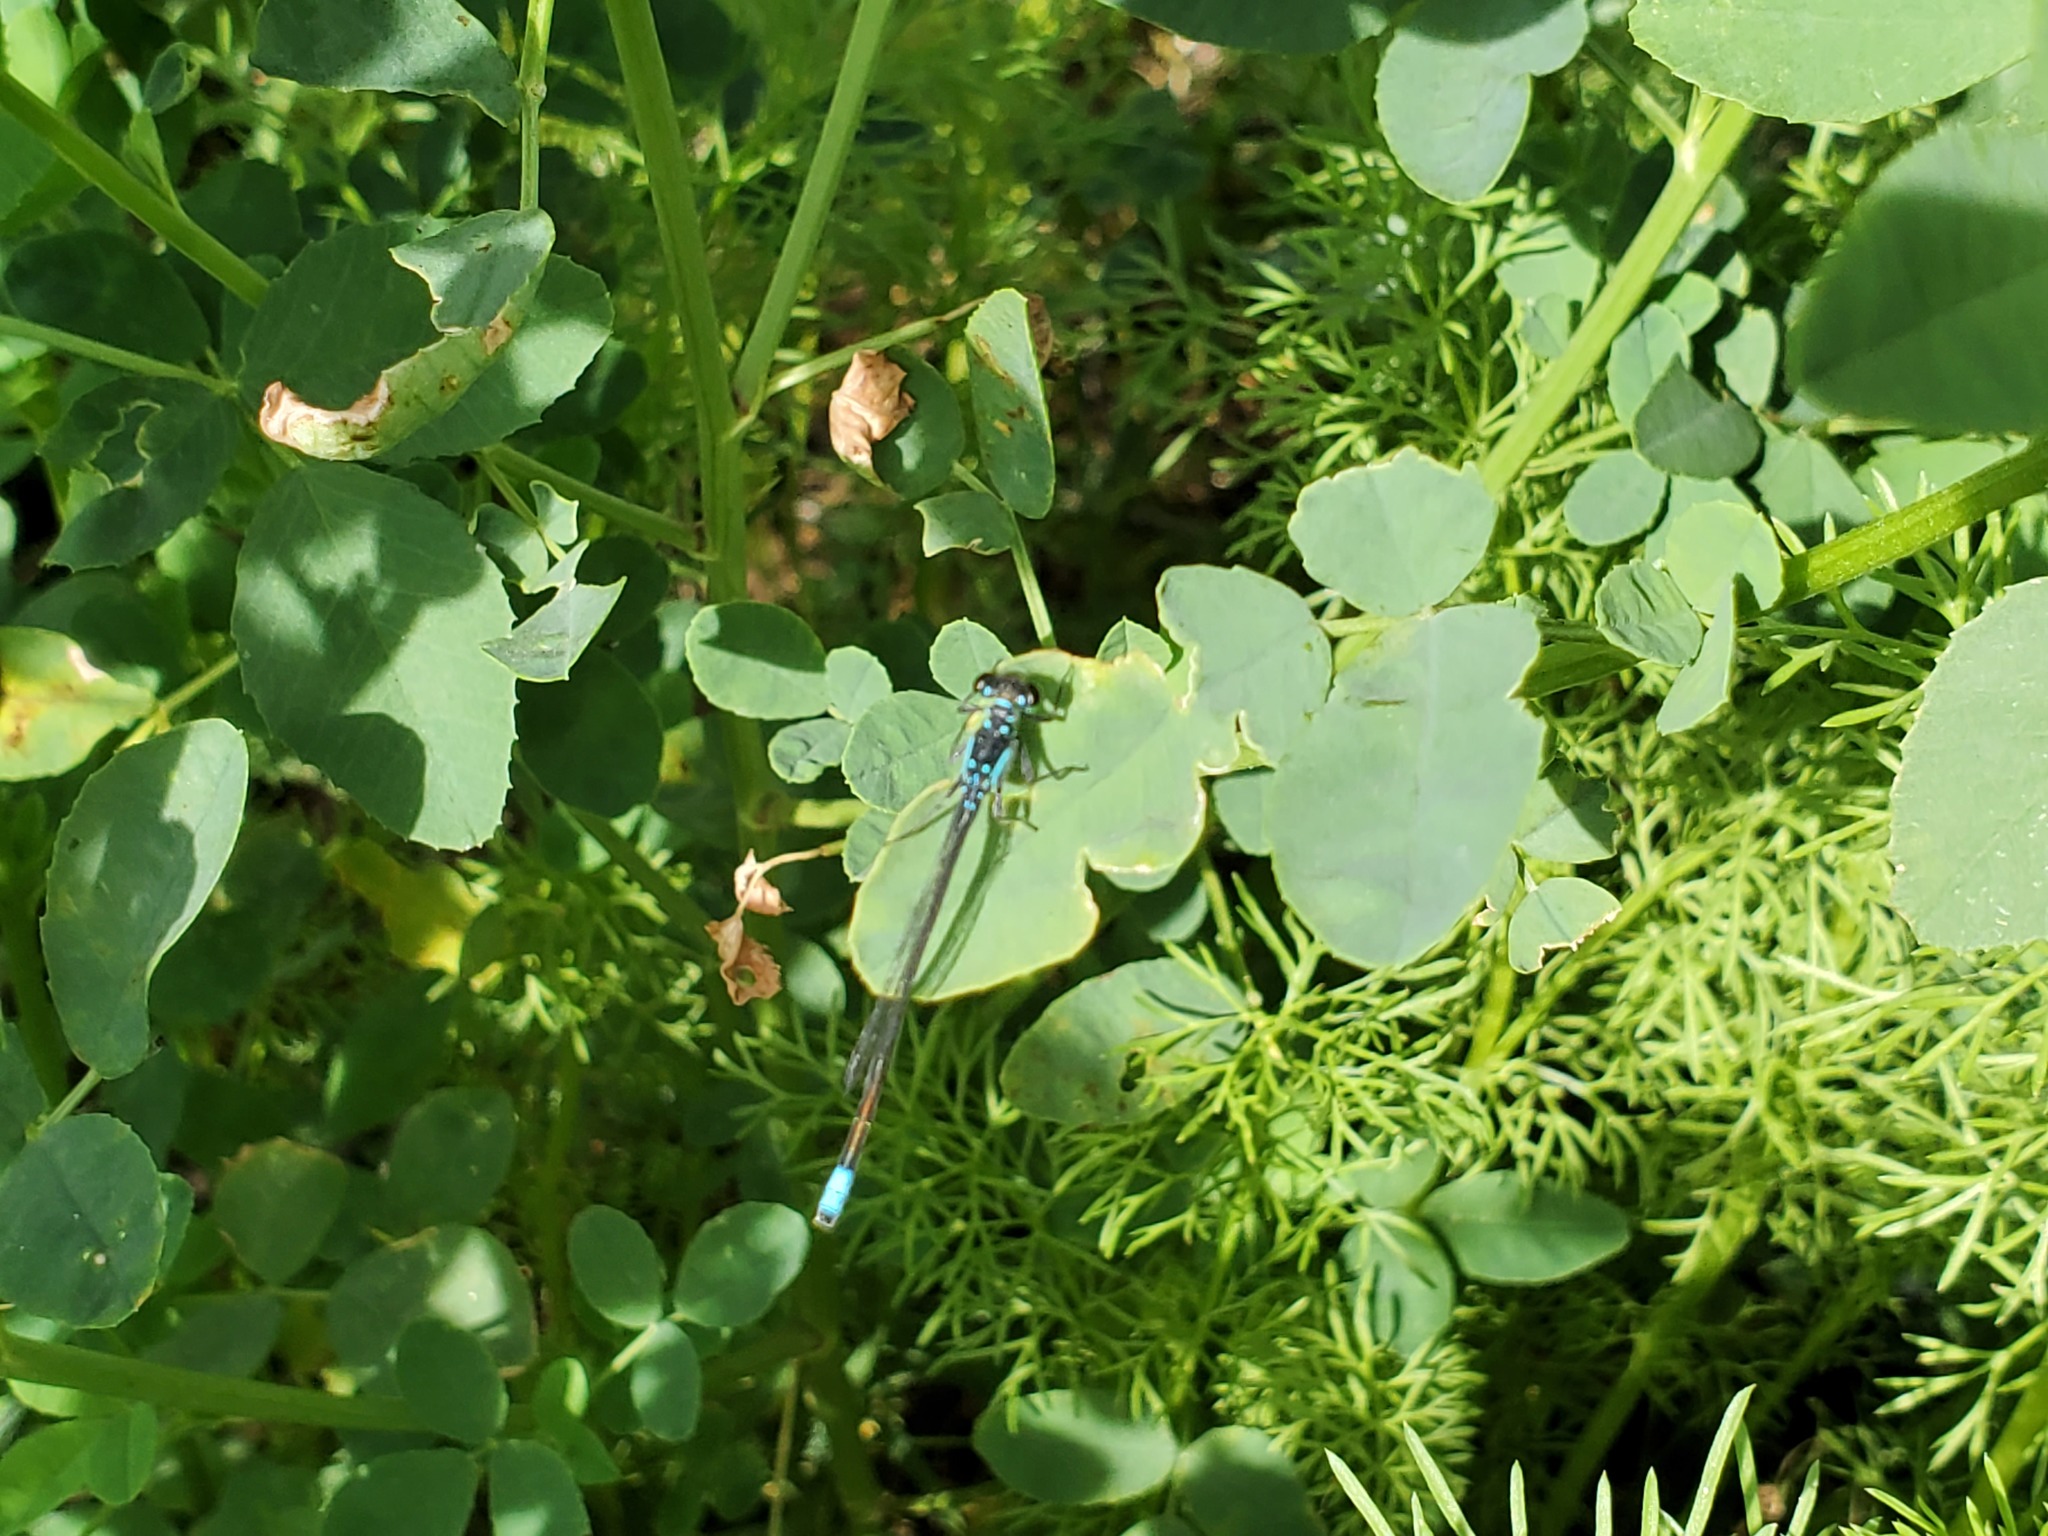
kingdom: Animalia
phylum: Arthropoda
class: Insecta
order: Odonata
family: Coenagrionidae
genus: Ischnura
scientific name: Ischnura cervula
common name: Pacific forktail
